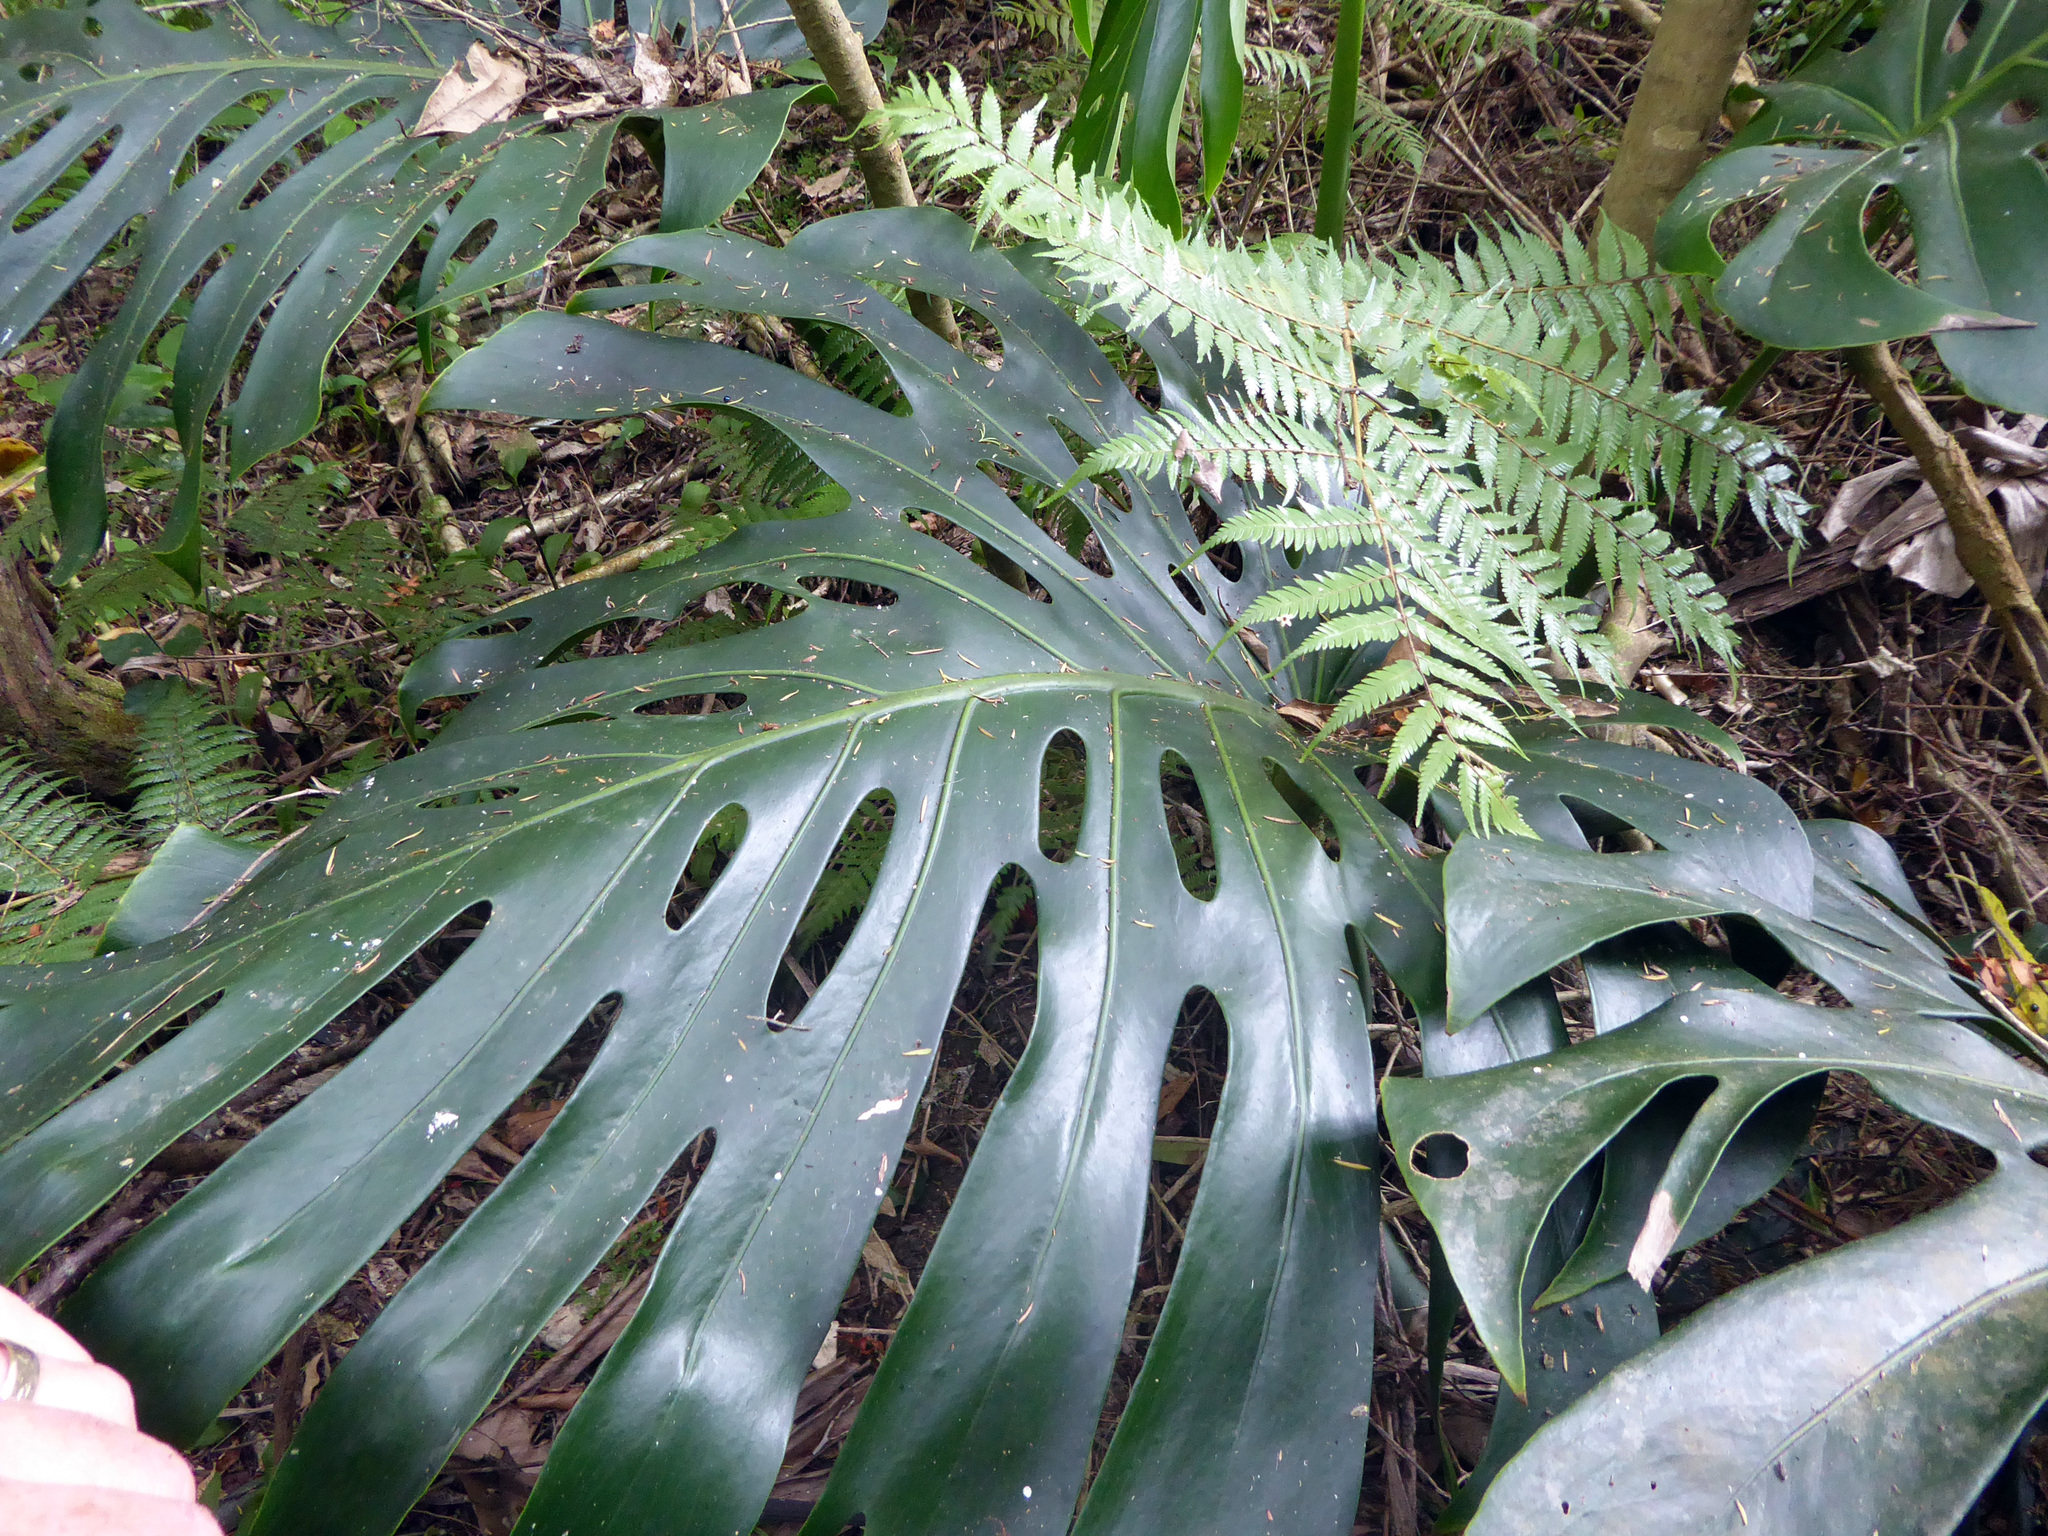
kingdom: Plantae
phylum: Tracheophyta
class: Liliopsida
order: Alismatales
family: Araceae
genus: Monstera
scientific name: Monstera deliciosa
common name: Cut-leaf-philodendron
